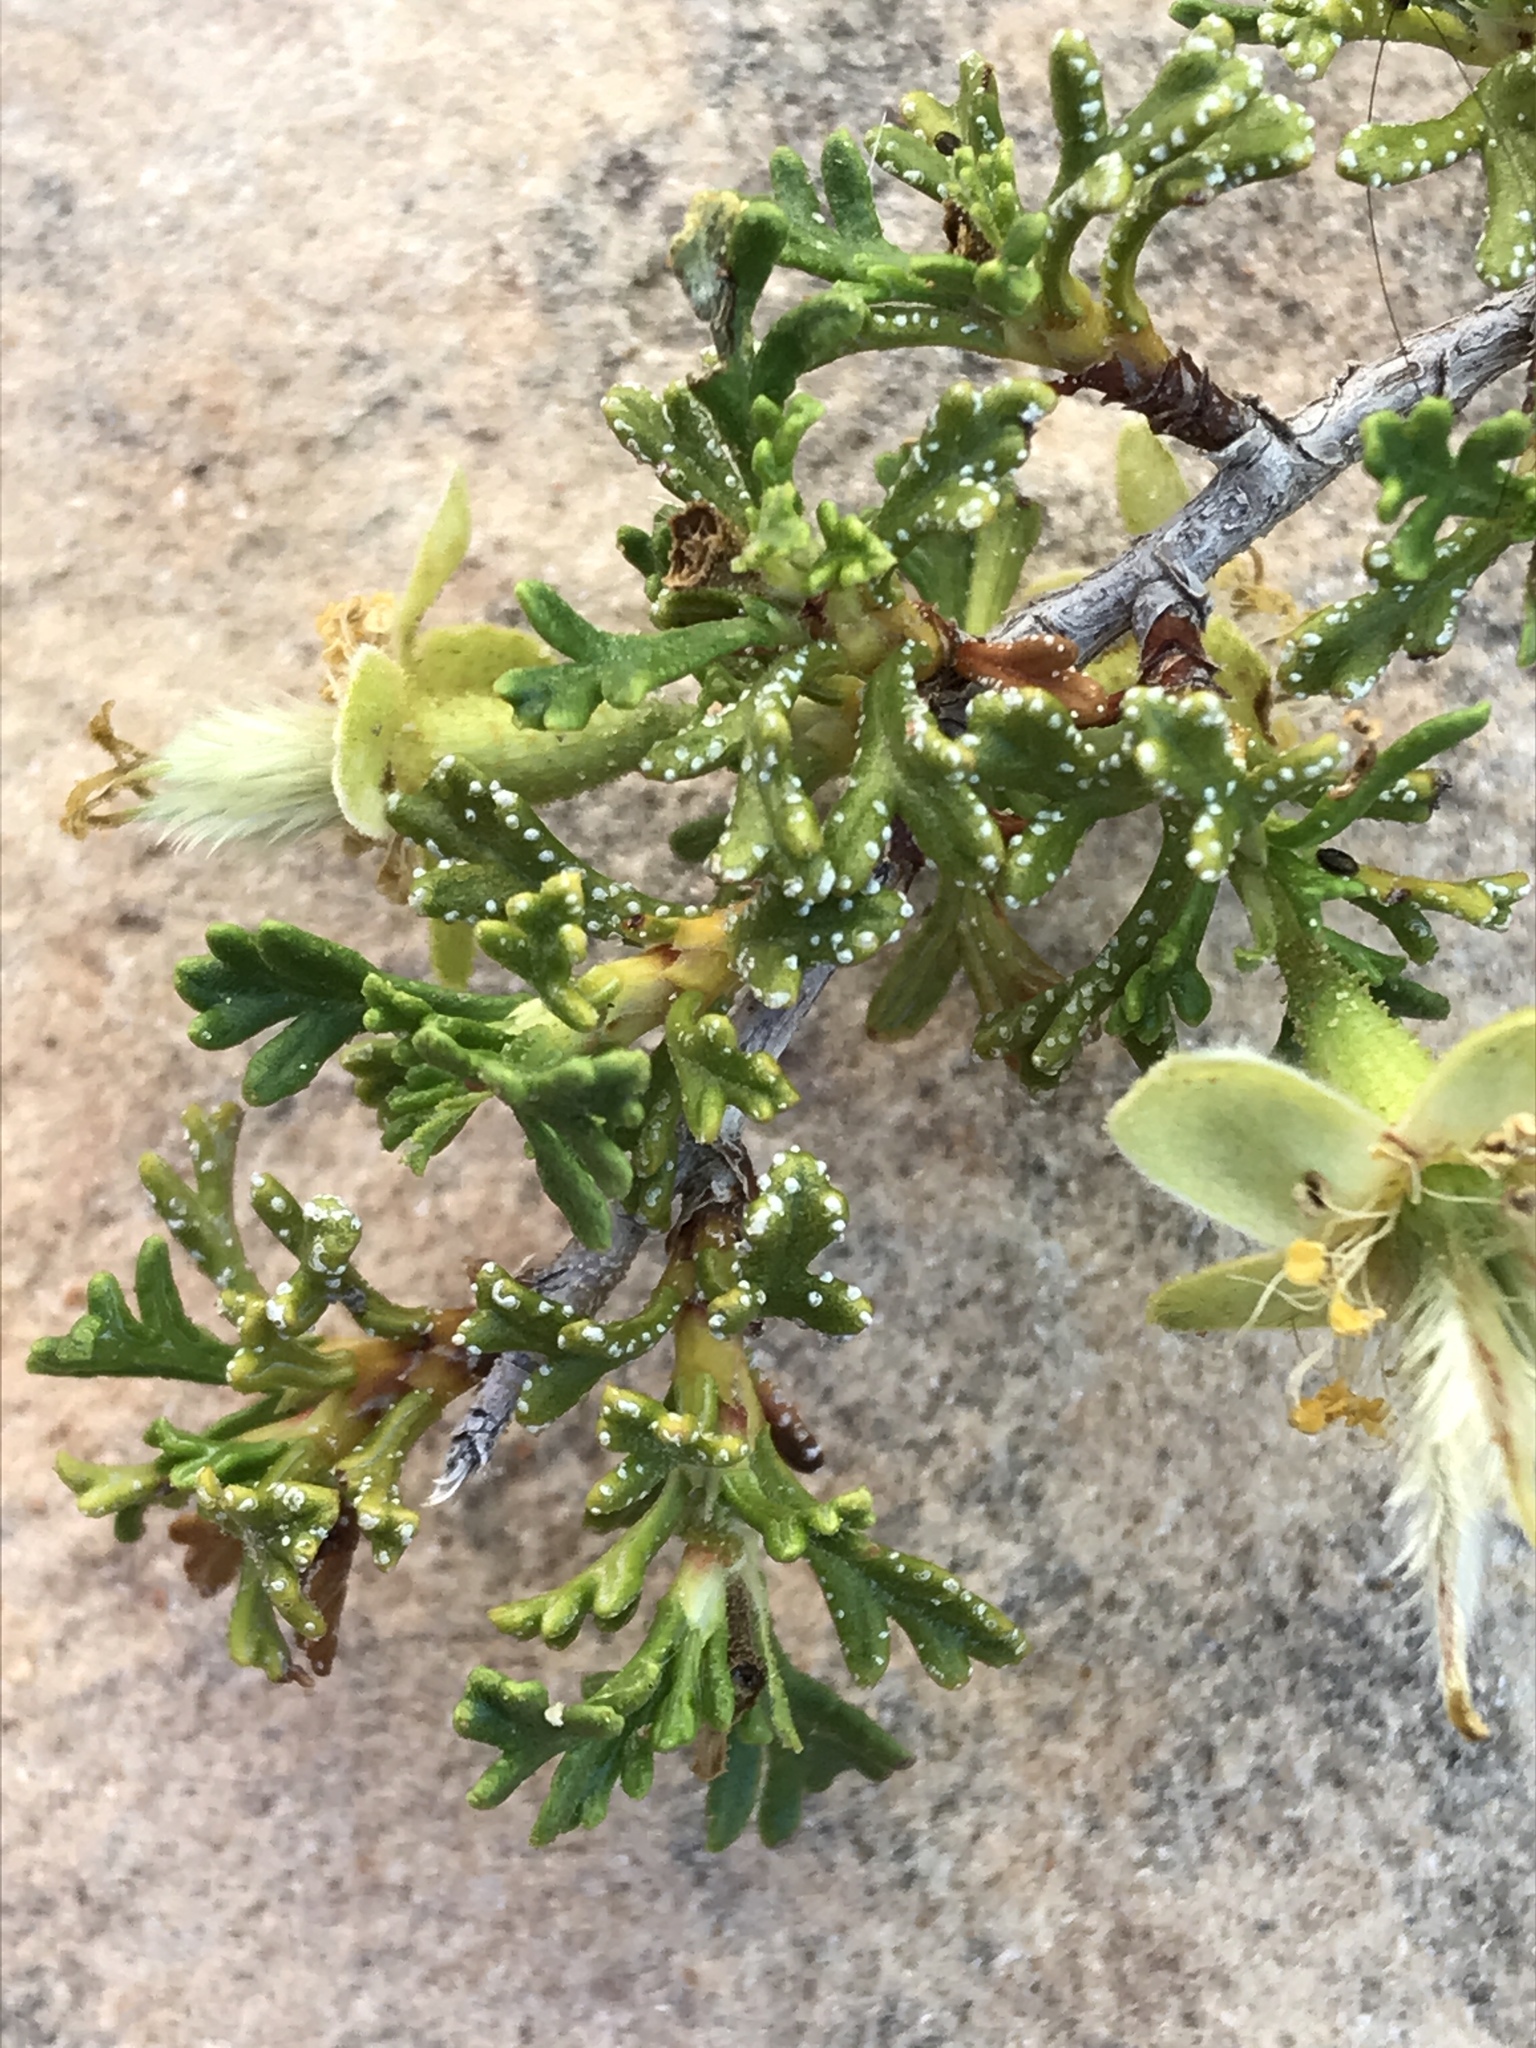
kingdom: Plantae
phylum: Tracheophyta
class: Magnoliopsida
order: Rosales
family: Rosaceae
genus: Purshia
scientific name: Purshia stansburiana
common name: Stansbury's cliffrose
